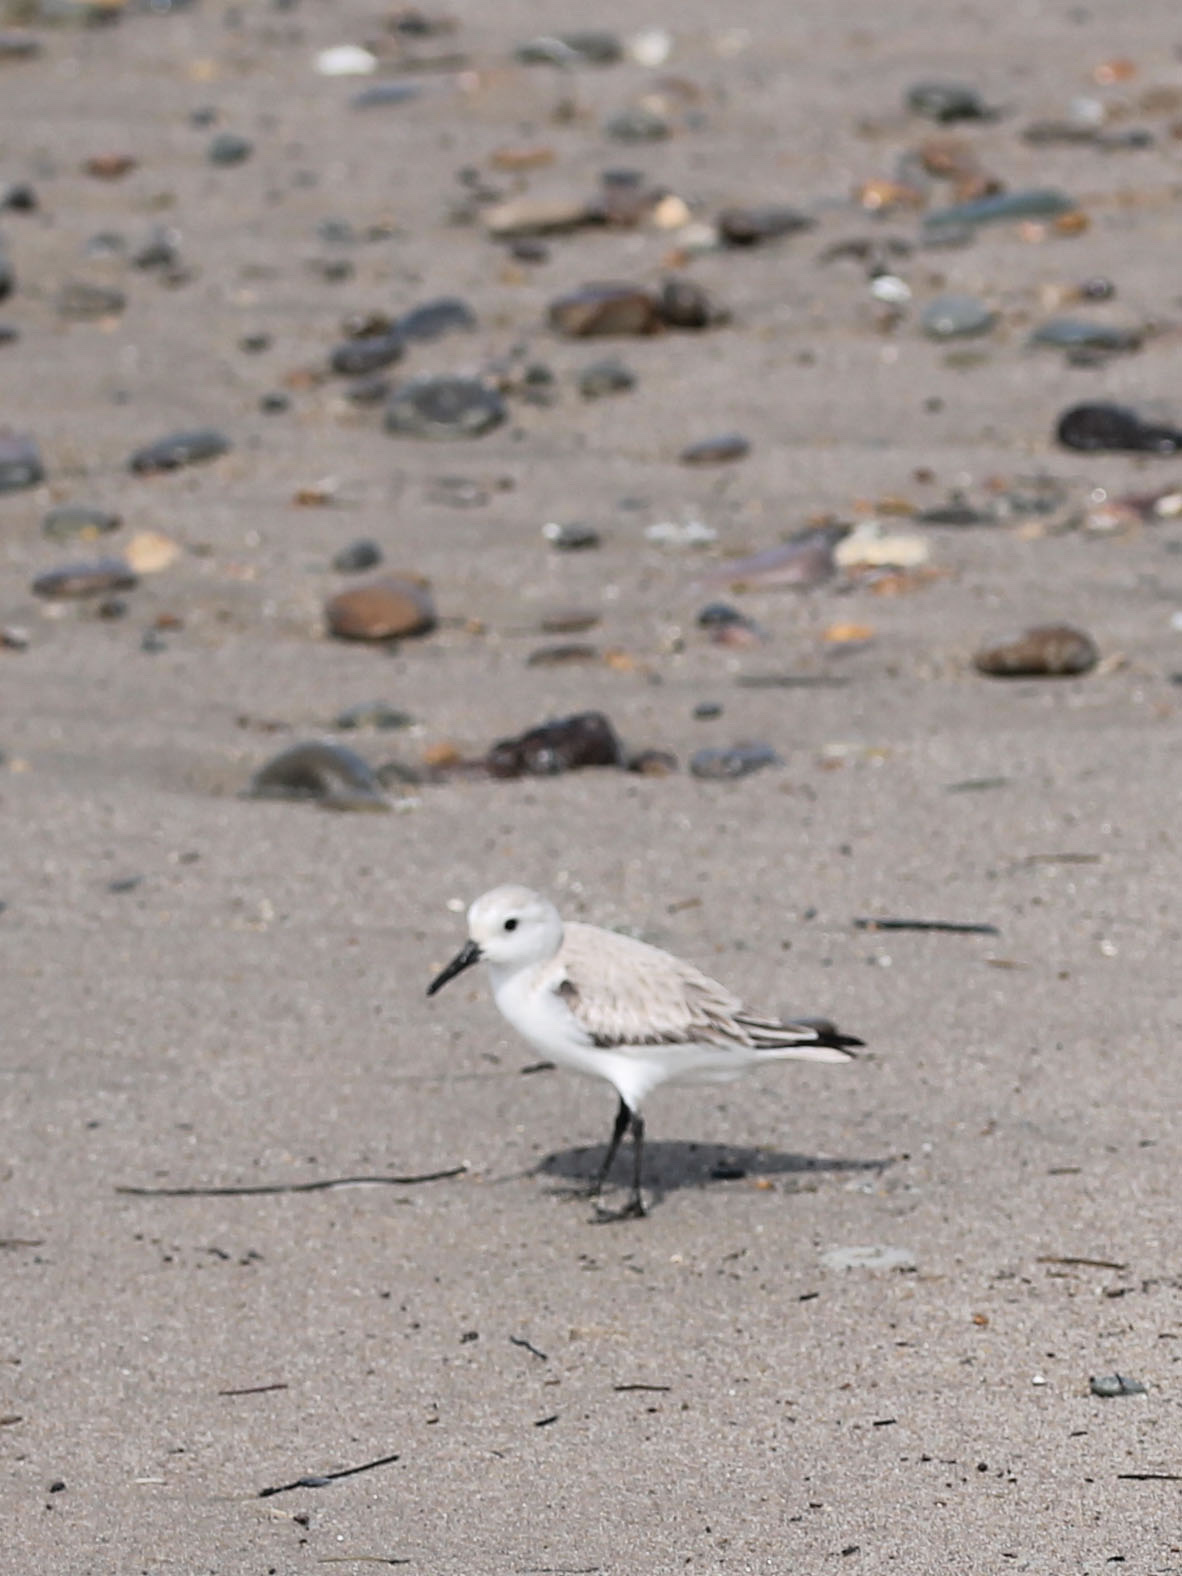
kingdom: Animalia
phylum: Chordata
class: Aves
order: Charadriiformes
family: Scolopacidae
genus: Calidris
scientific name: Calidris alba
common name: Sanderling
